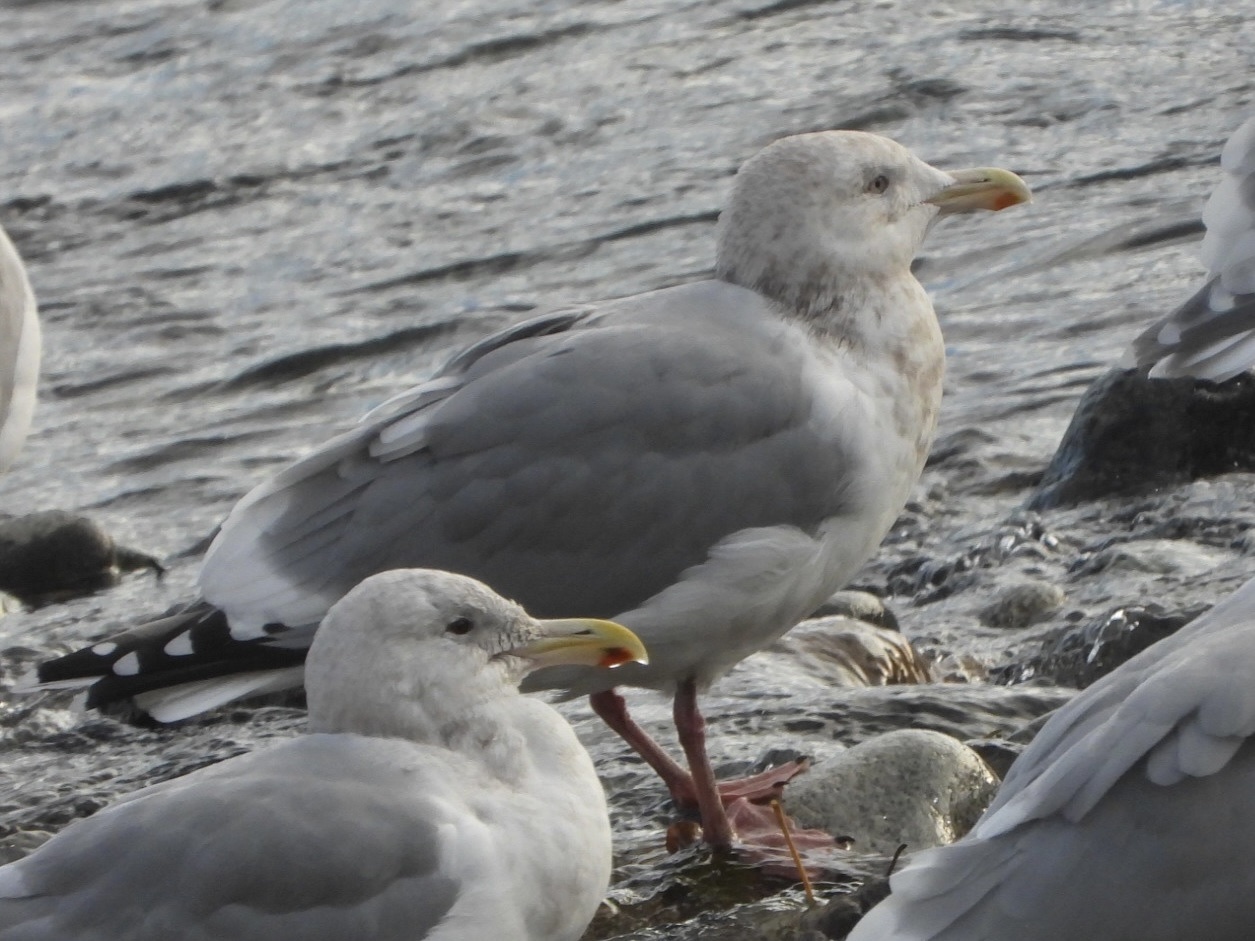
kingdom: Animalia
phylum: Chordata
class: Aves
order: Charadriiformes
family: Laridae
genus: Larus
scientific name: Larus
